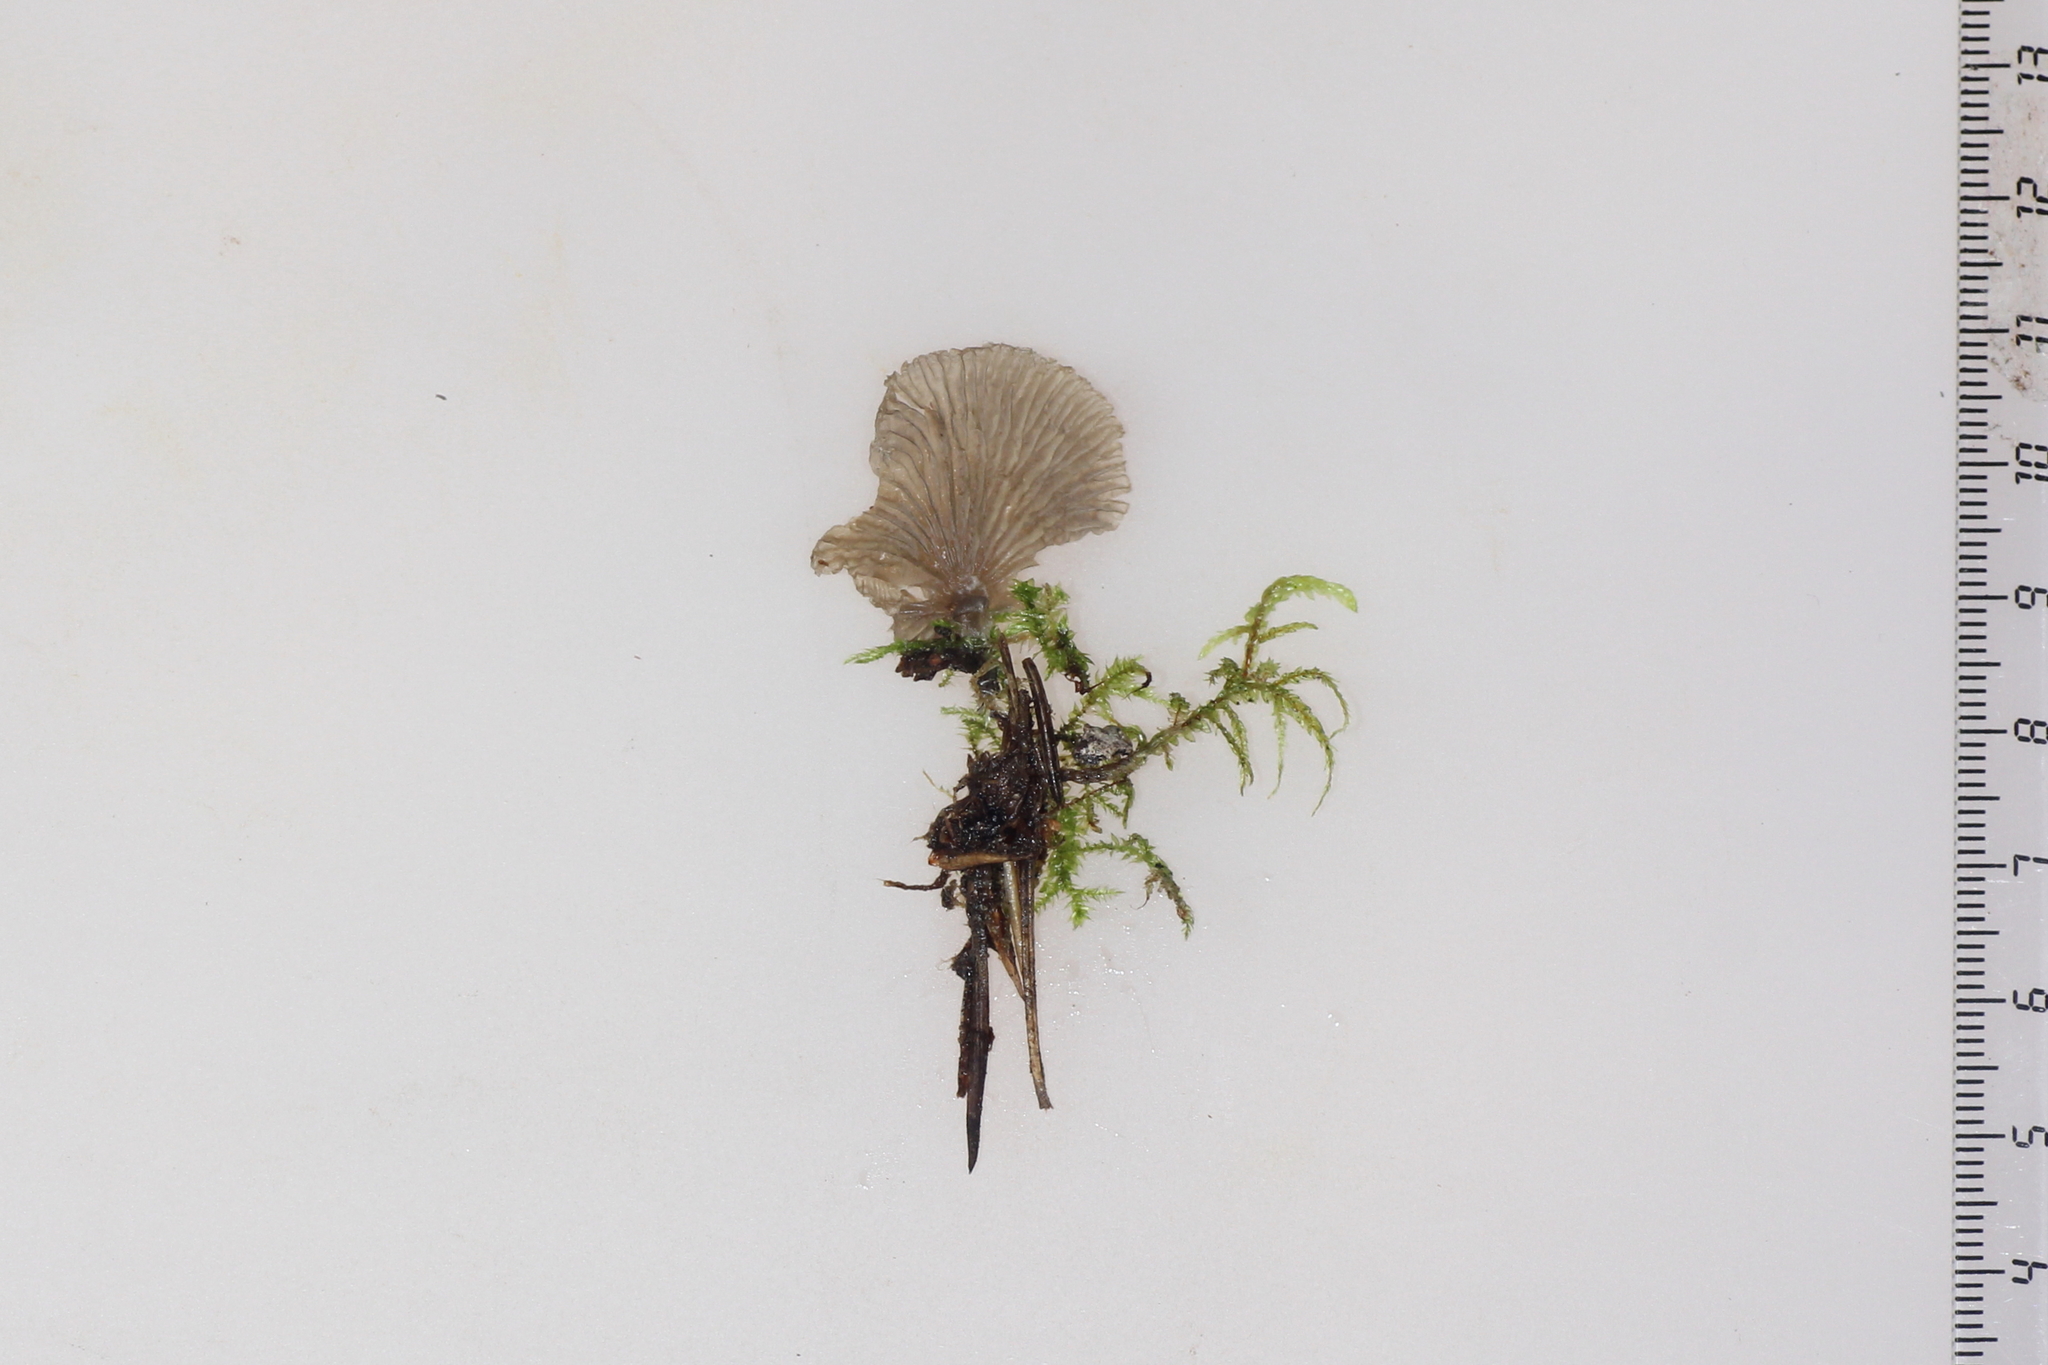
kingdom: Fungi
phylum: Basidiomycota
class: Agaricomycetes
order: Agaricales
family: Hygrophoraceae
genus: Arrhenia
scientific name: Arrhenia acerosa
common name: Moss oysterling
